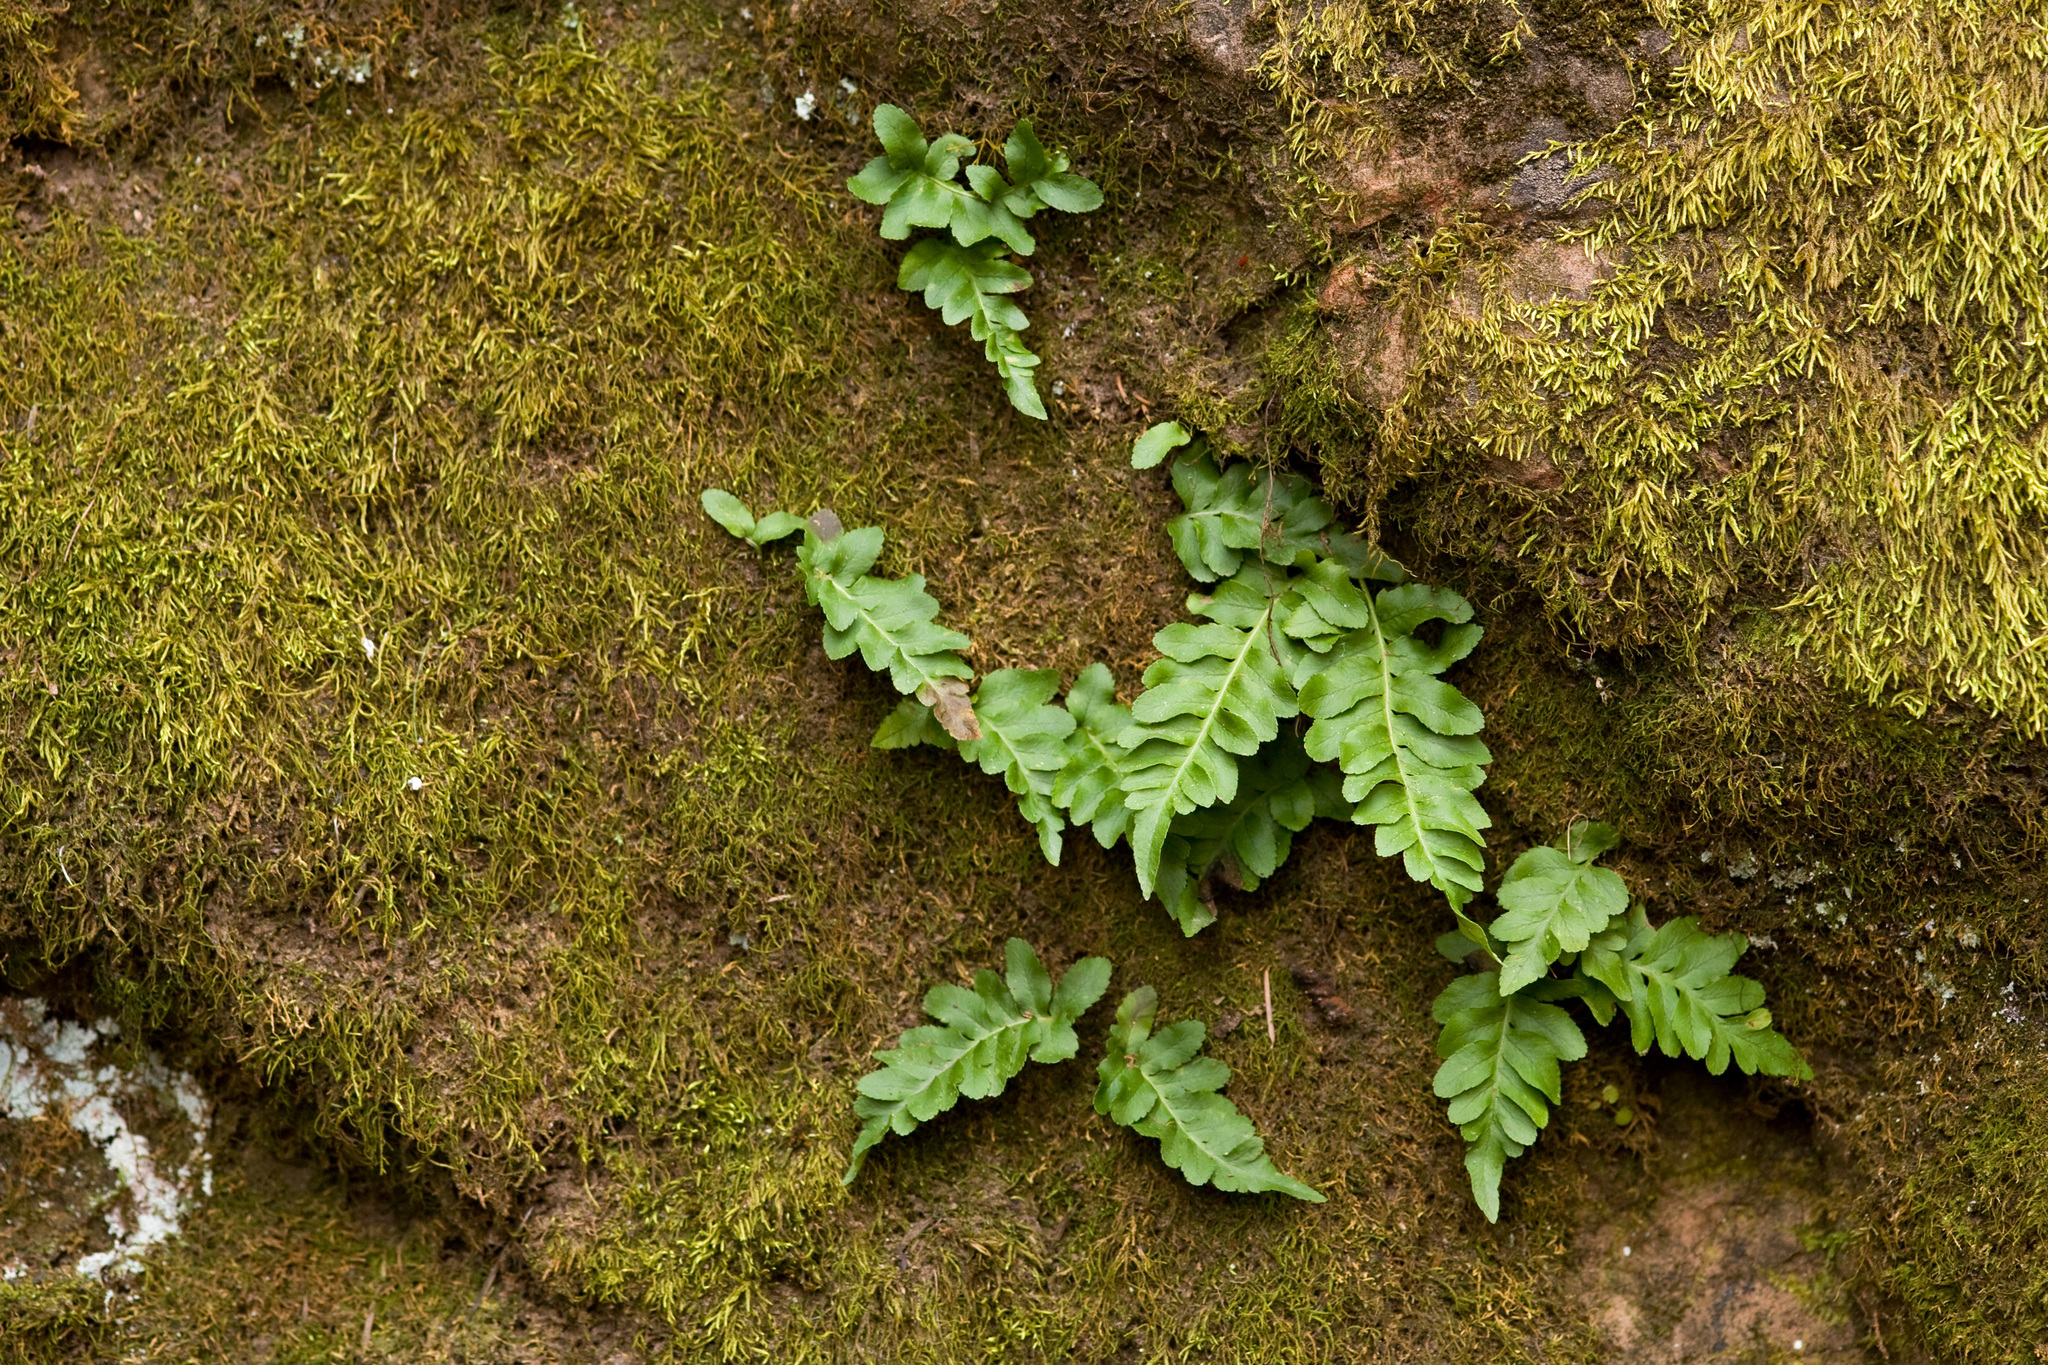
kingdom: Plantae
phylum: Tracheophyta
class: Polypodiopsida
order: Polypodiales
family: Polypodiaceae
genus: Polypodium
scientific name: Polypodium hesperium
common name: Western polypody
